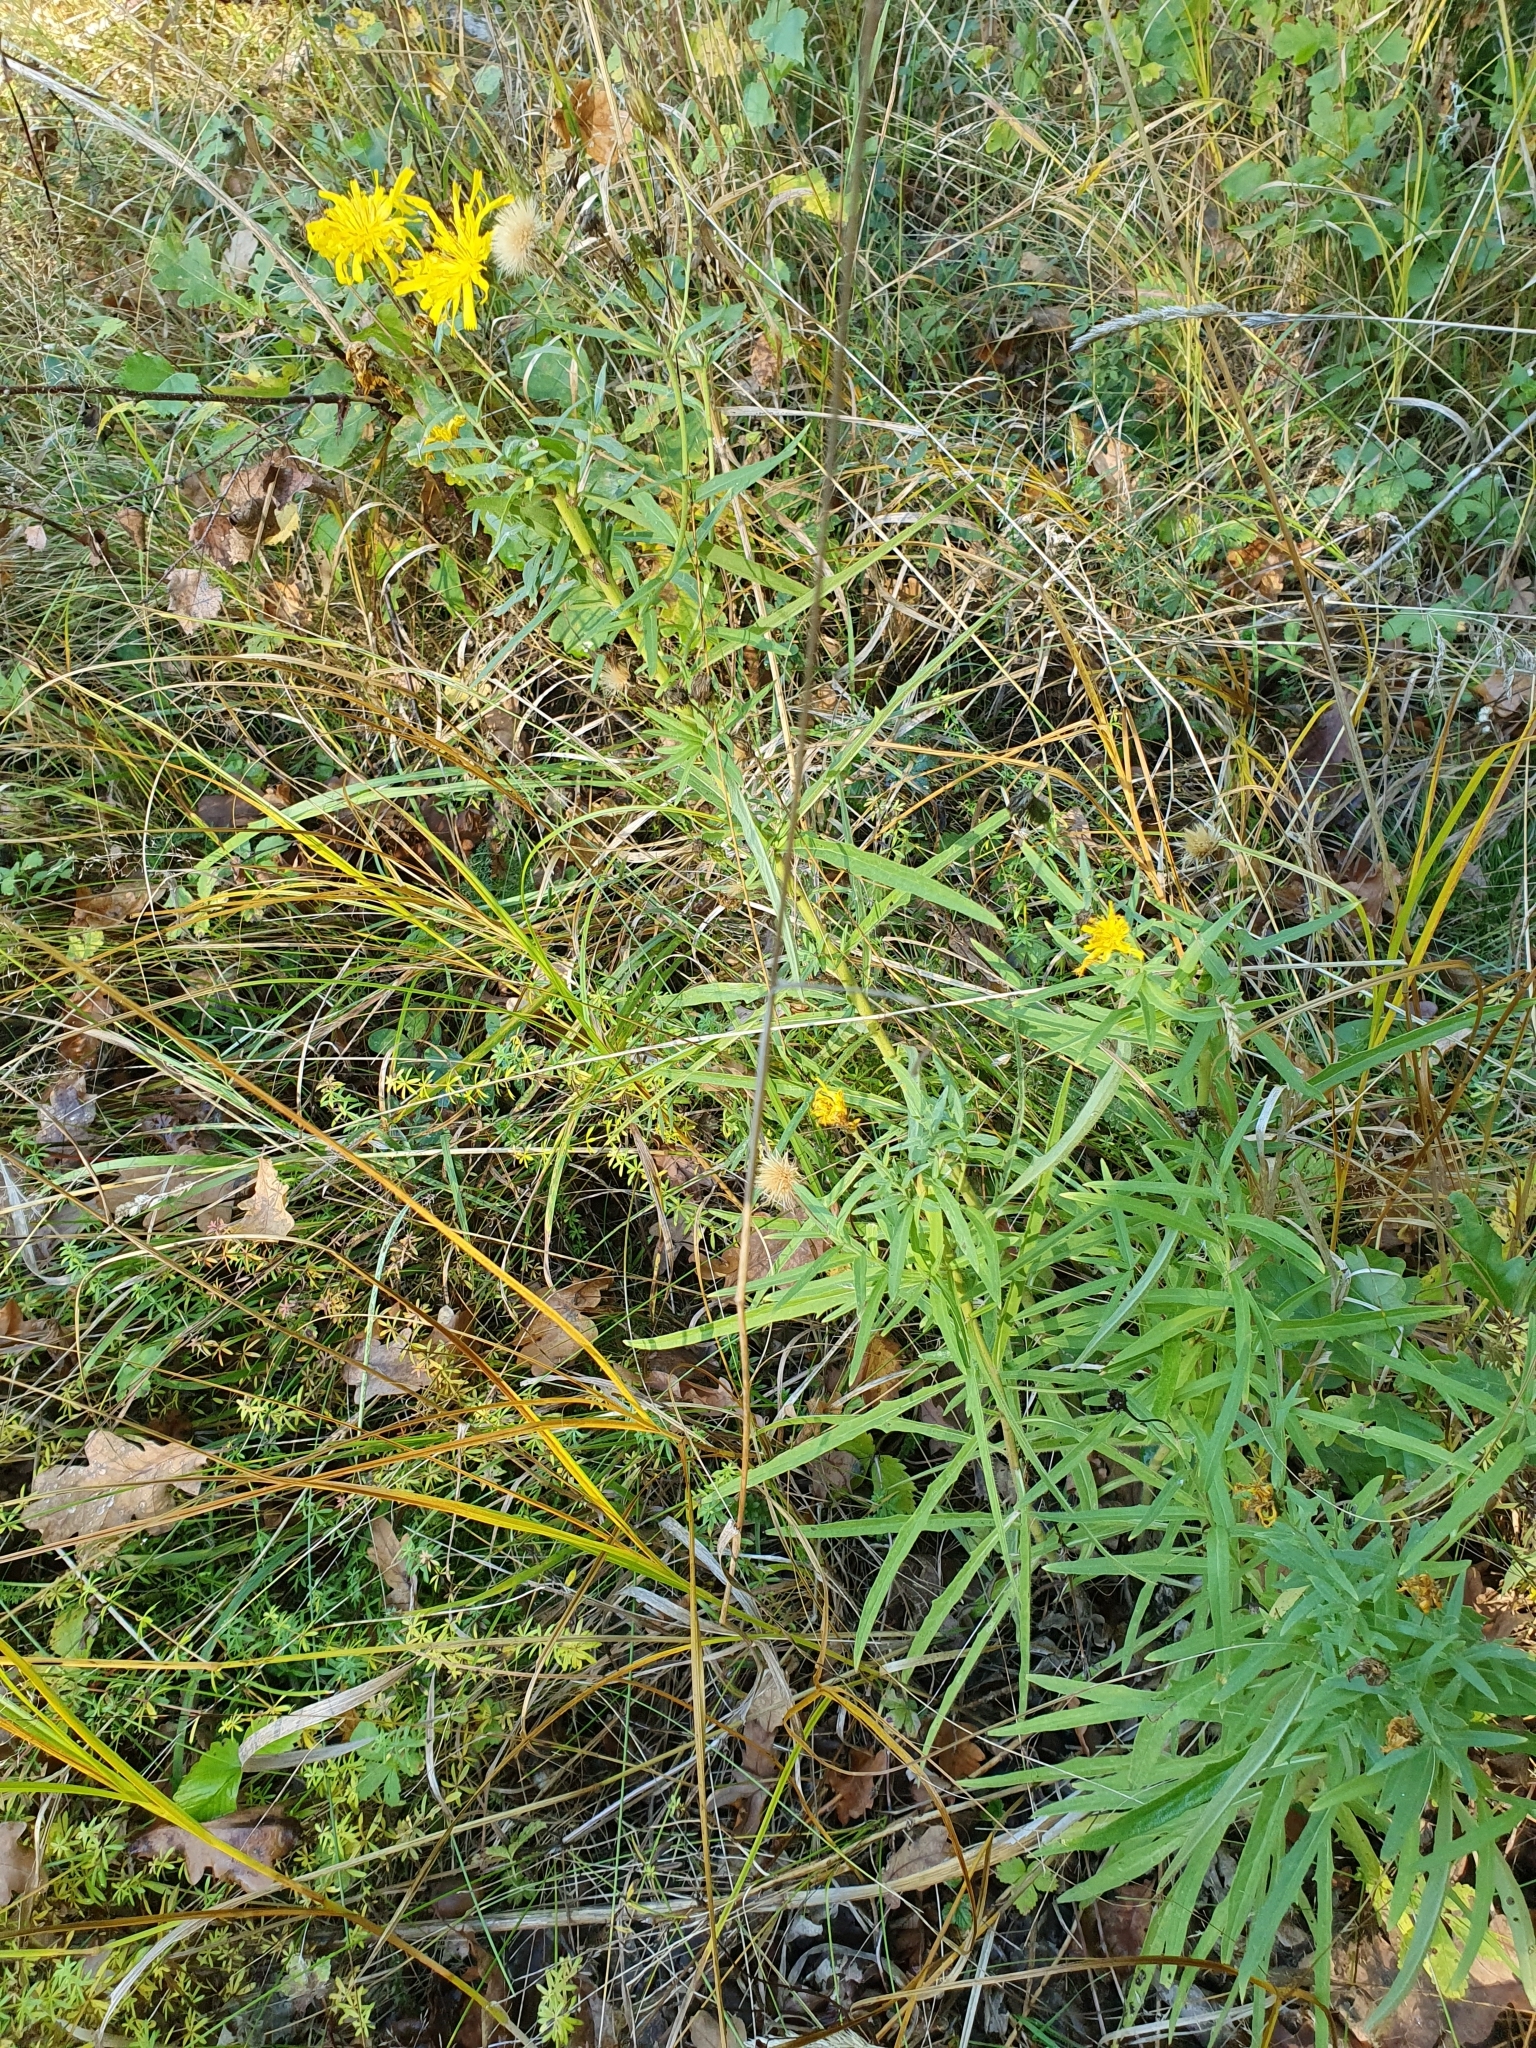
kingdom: Plantae
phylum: Tracheophyta
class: Magnoliopsida
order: Asterales
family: Asteraceae
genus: Hieracium
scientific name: Hieracium umbellatum
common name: Northern hawkweed
